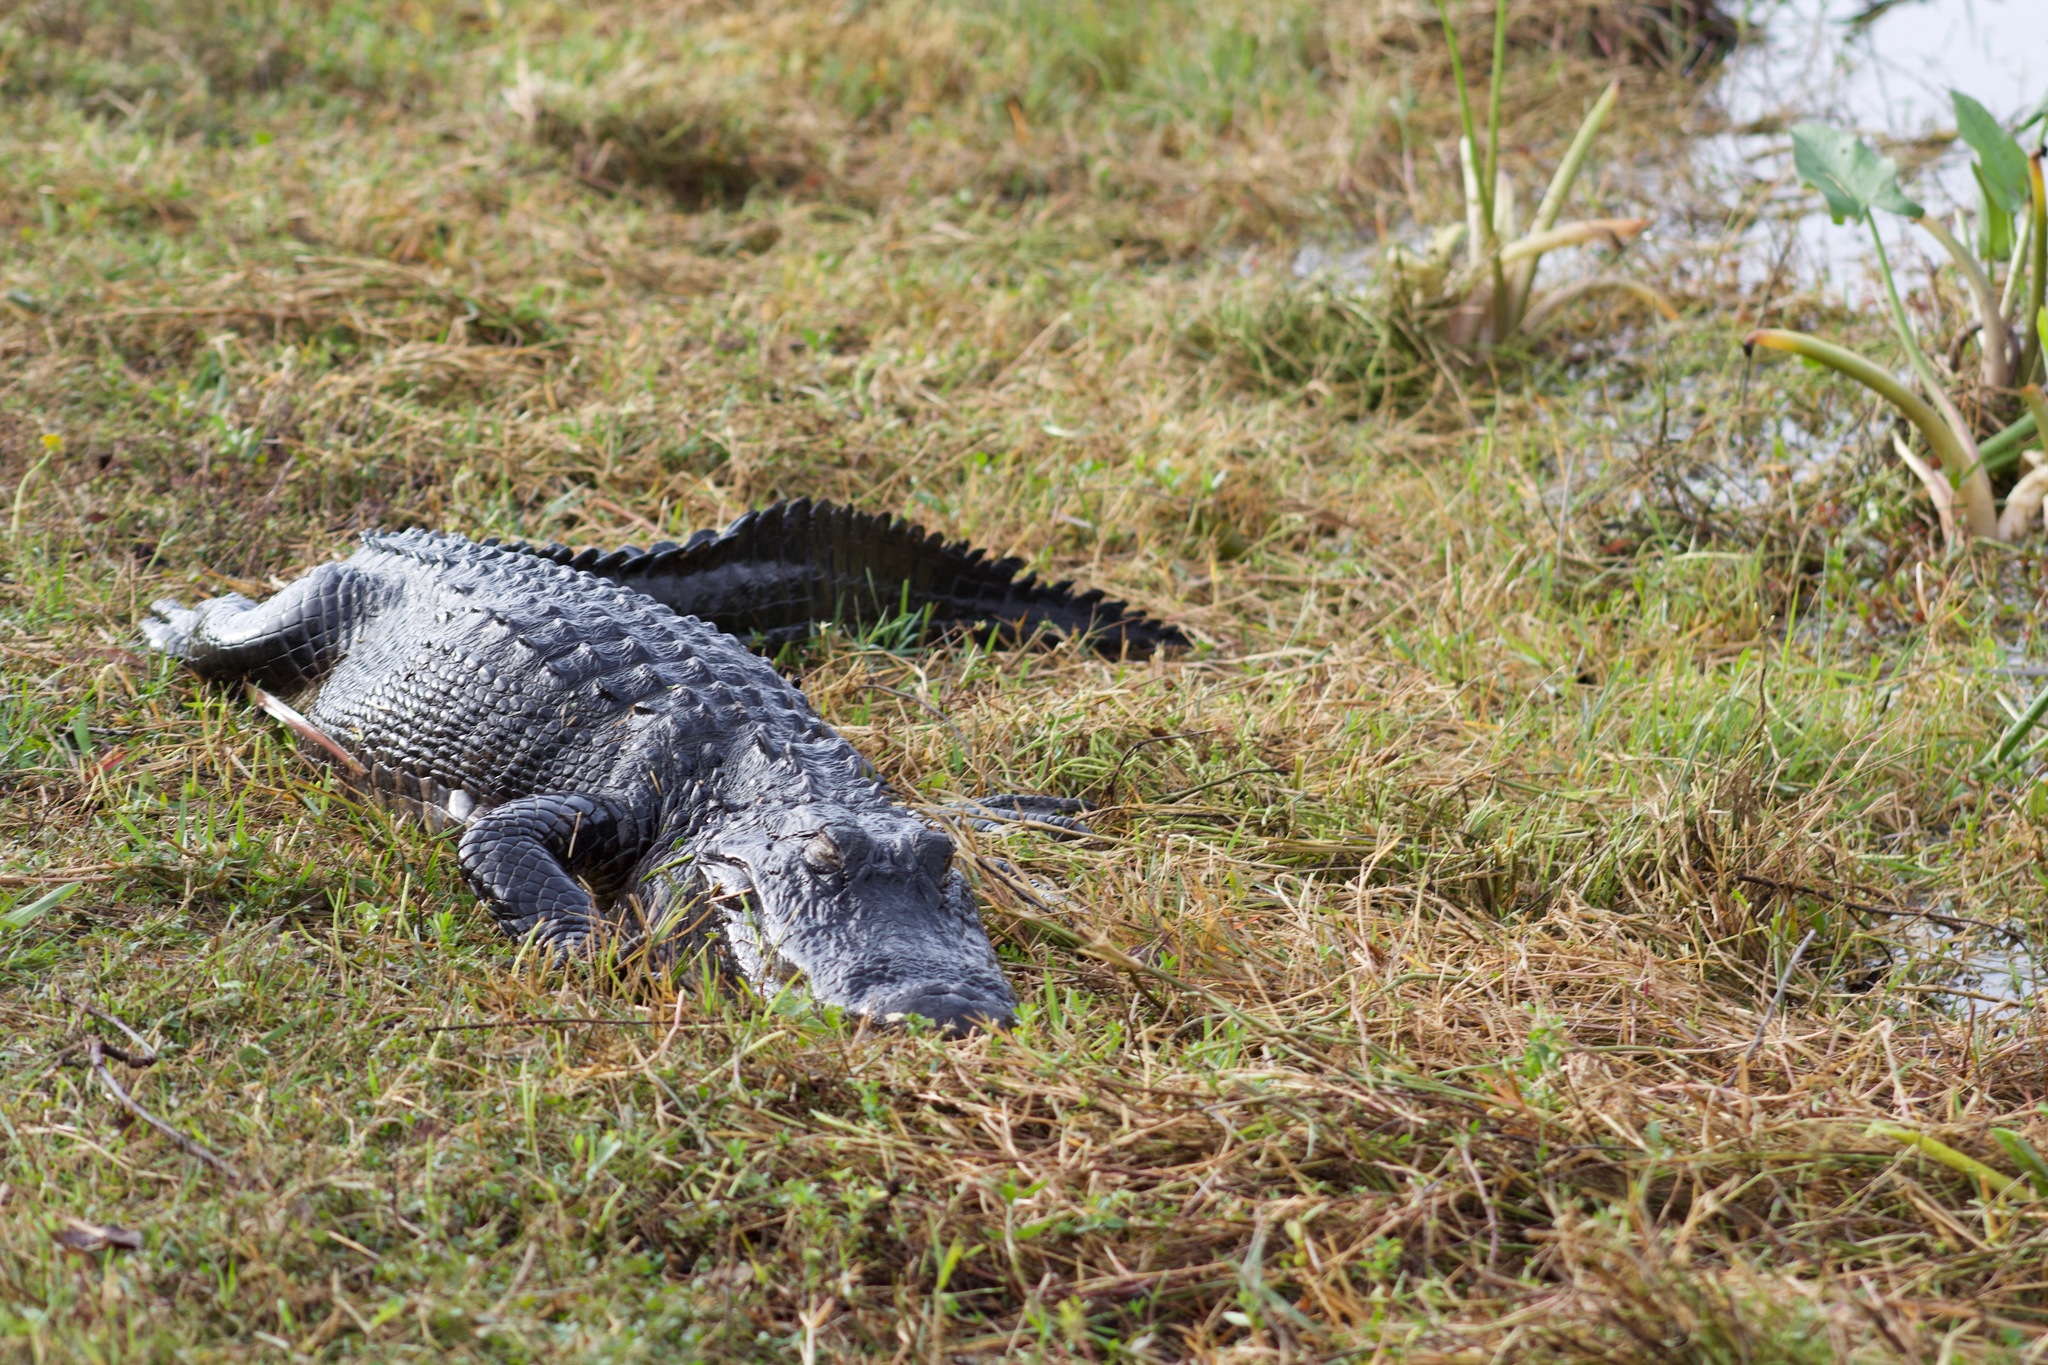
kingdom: Animalia
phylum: Chordata
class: Crocodylia
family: Alligatoridae
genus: Alligator
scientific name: Alligator mississippiensis
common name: American alligator
